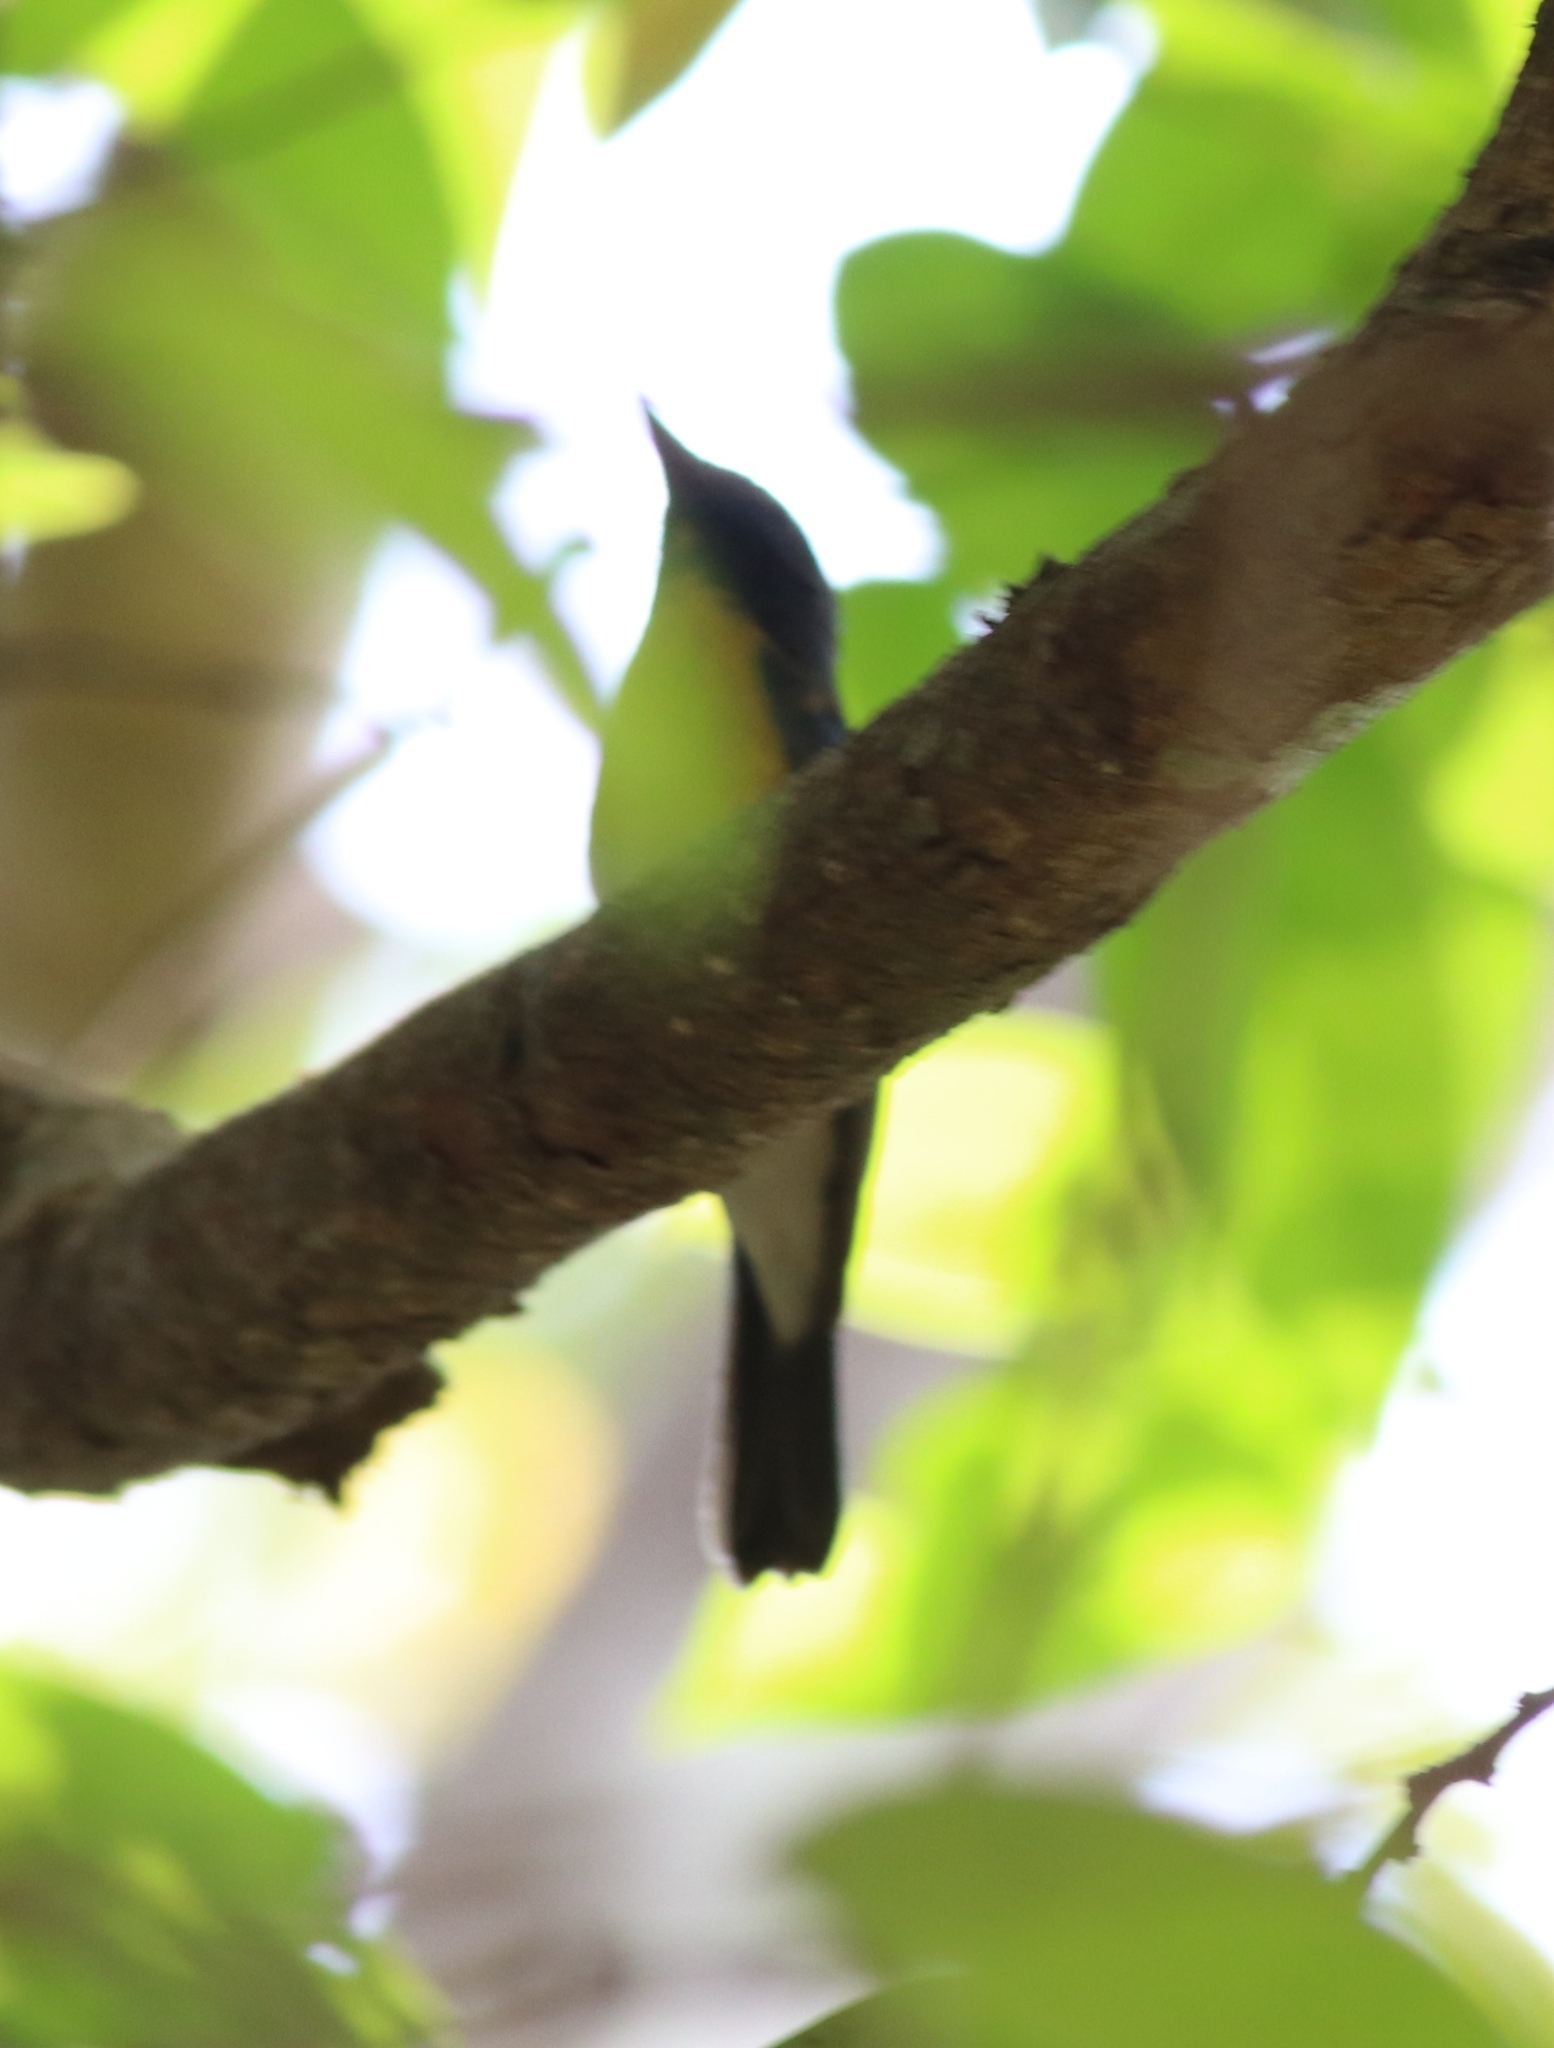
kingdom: Animalia
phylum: Chordata
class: Aves
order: Passeriformes
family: Muscicapidae
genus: Cyornis
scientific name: Cyornis tickelliae
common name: Tickell's blue flycatcher
